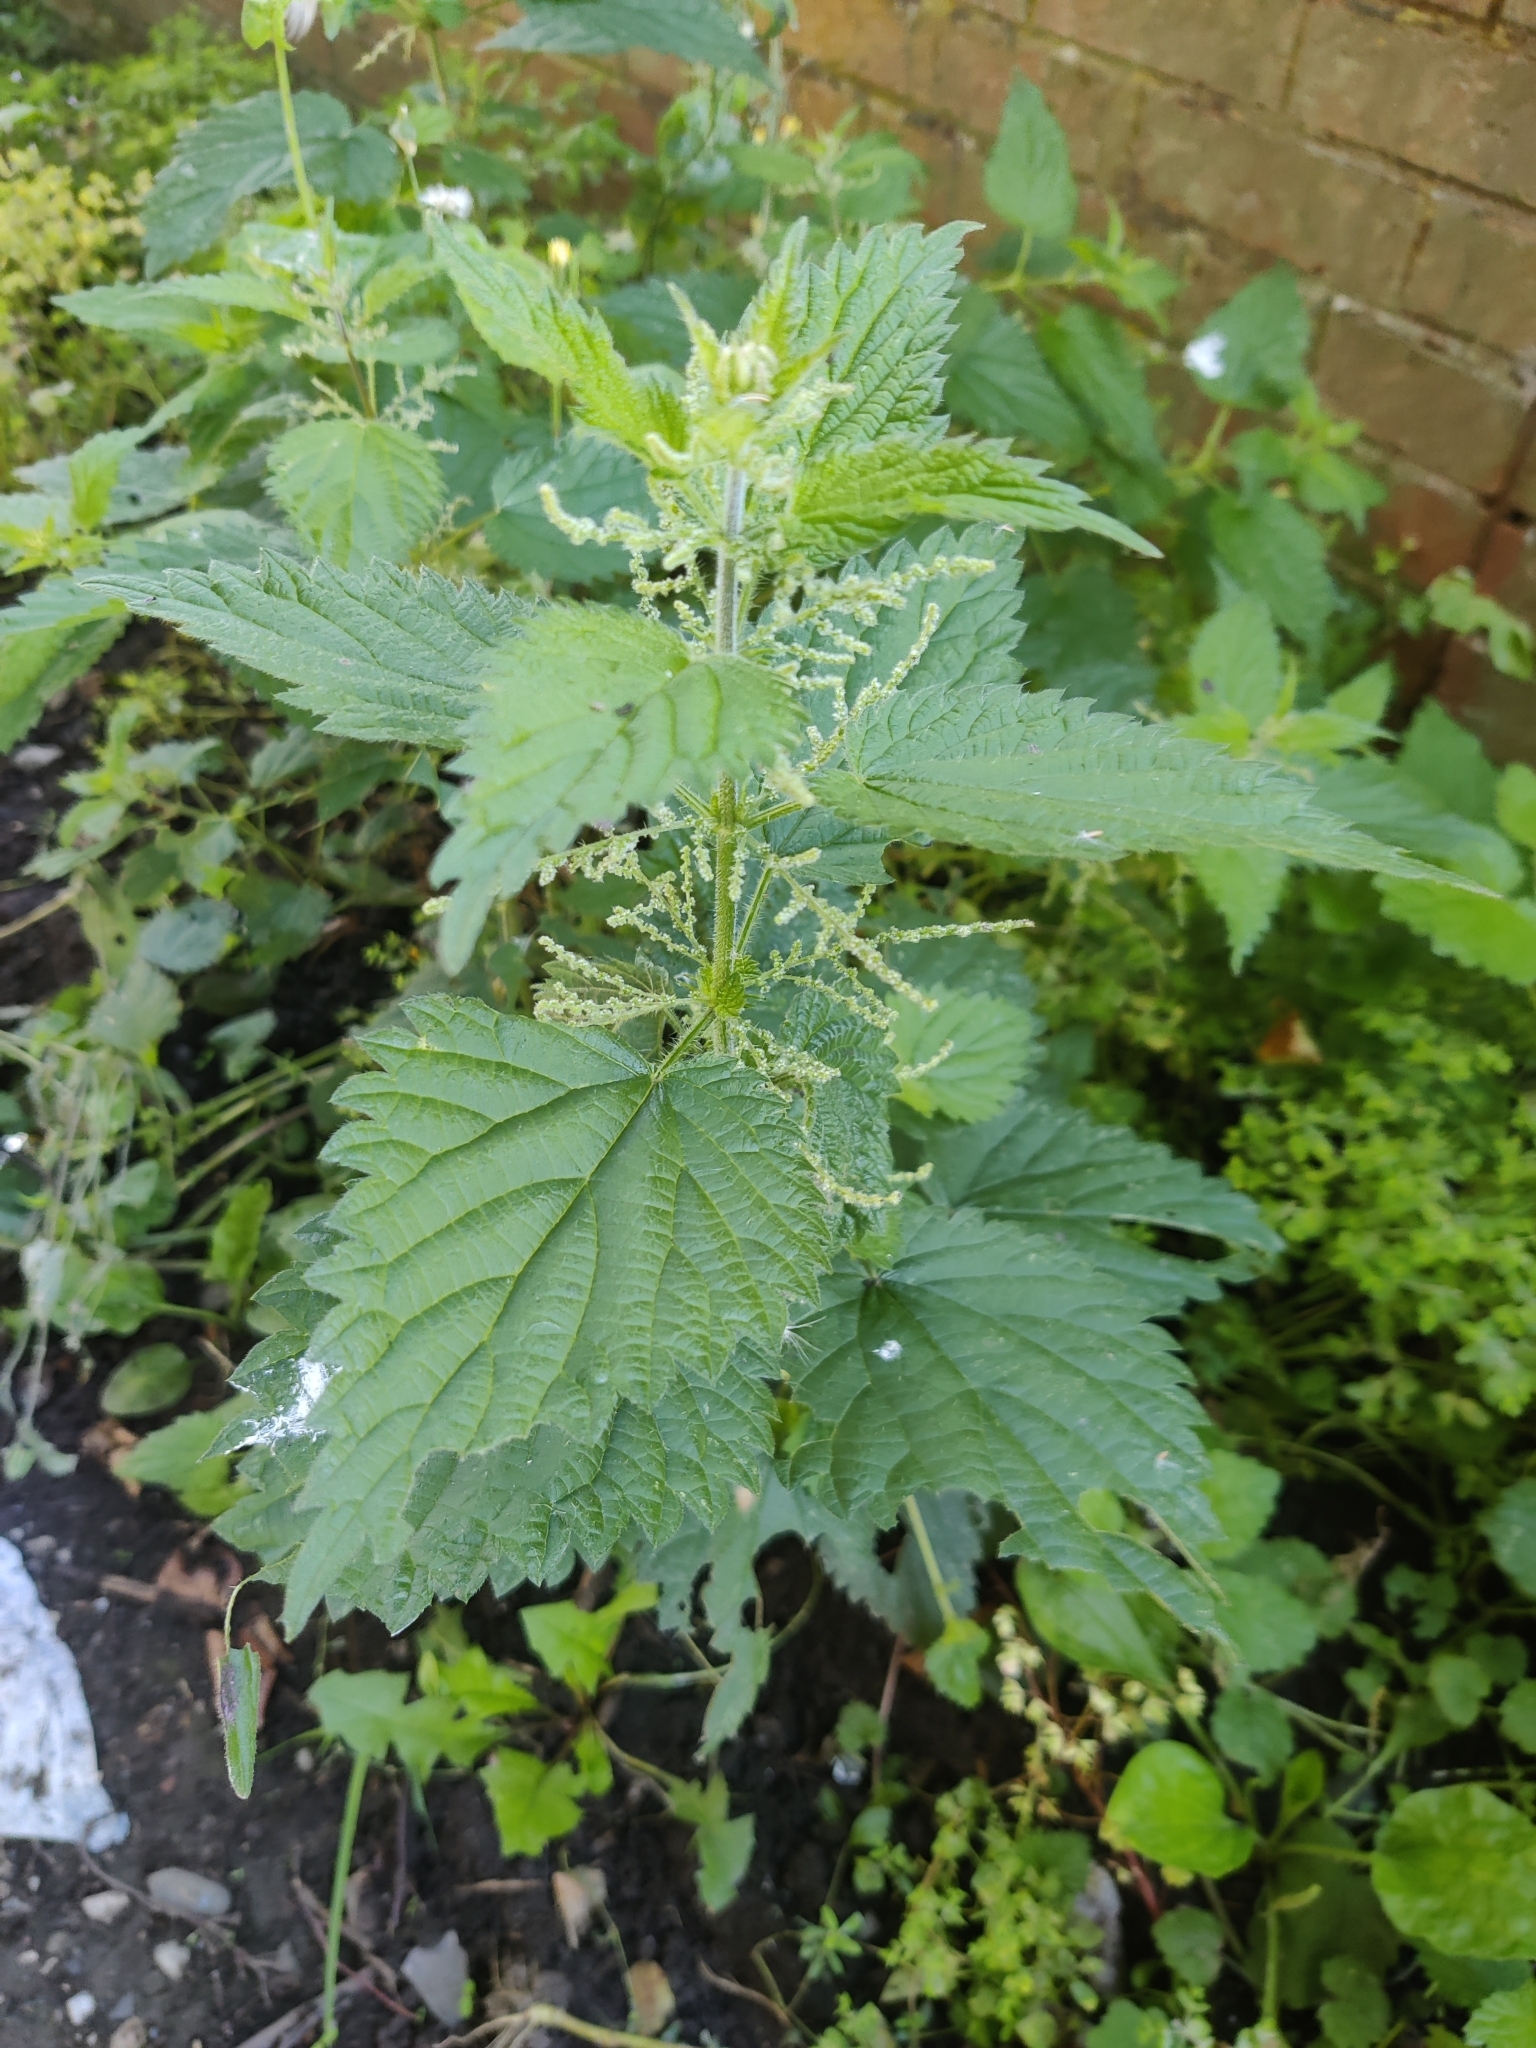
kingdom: Plantae
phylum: Tracheophyta
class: Magnoliopsida
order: Rosales
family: Urticaceae
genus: Urtica
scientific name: Urtica dioica
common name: Common nettle
